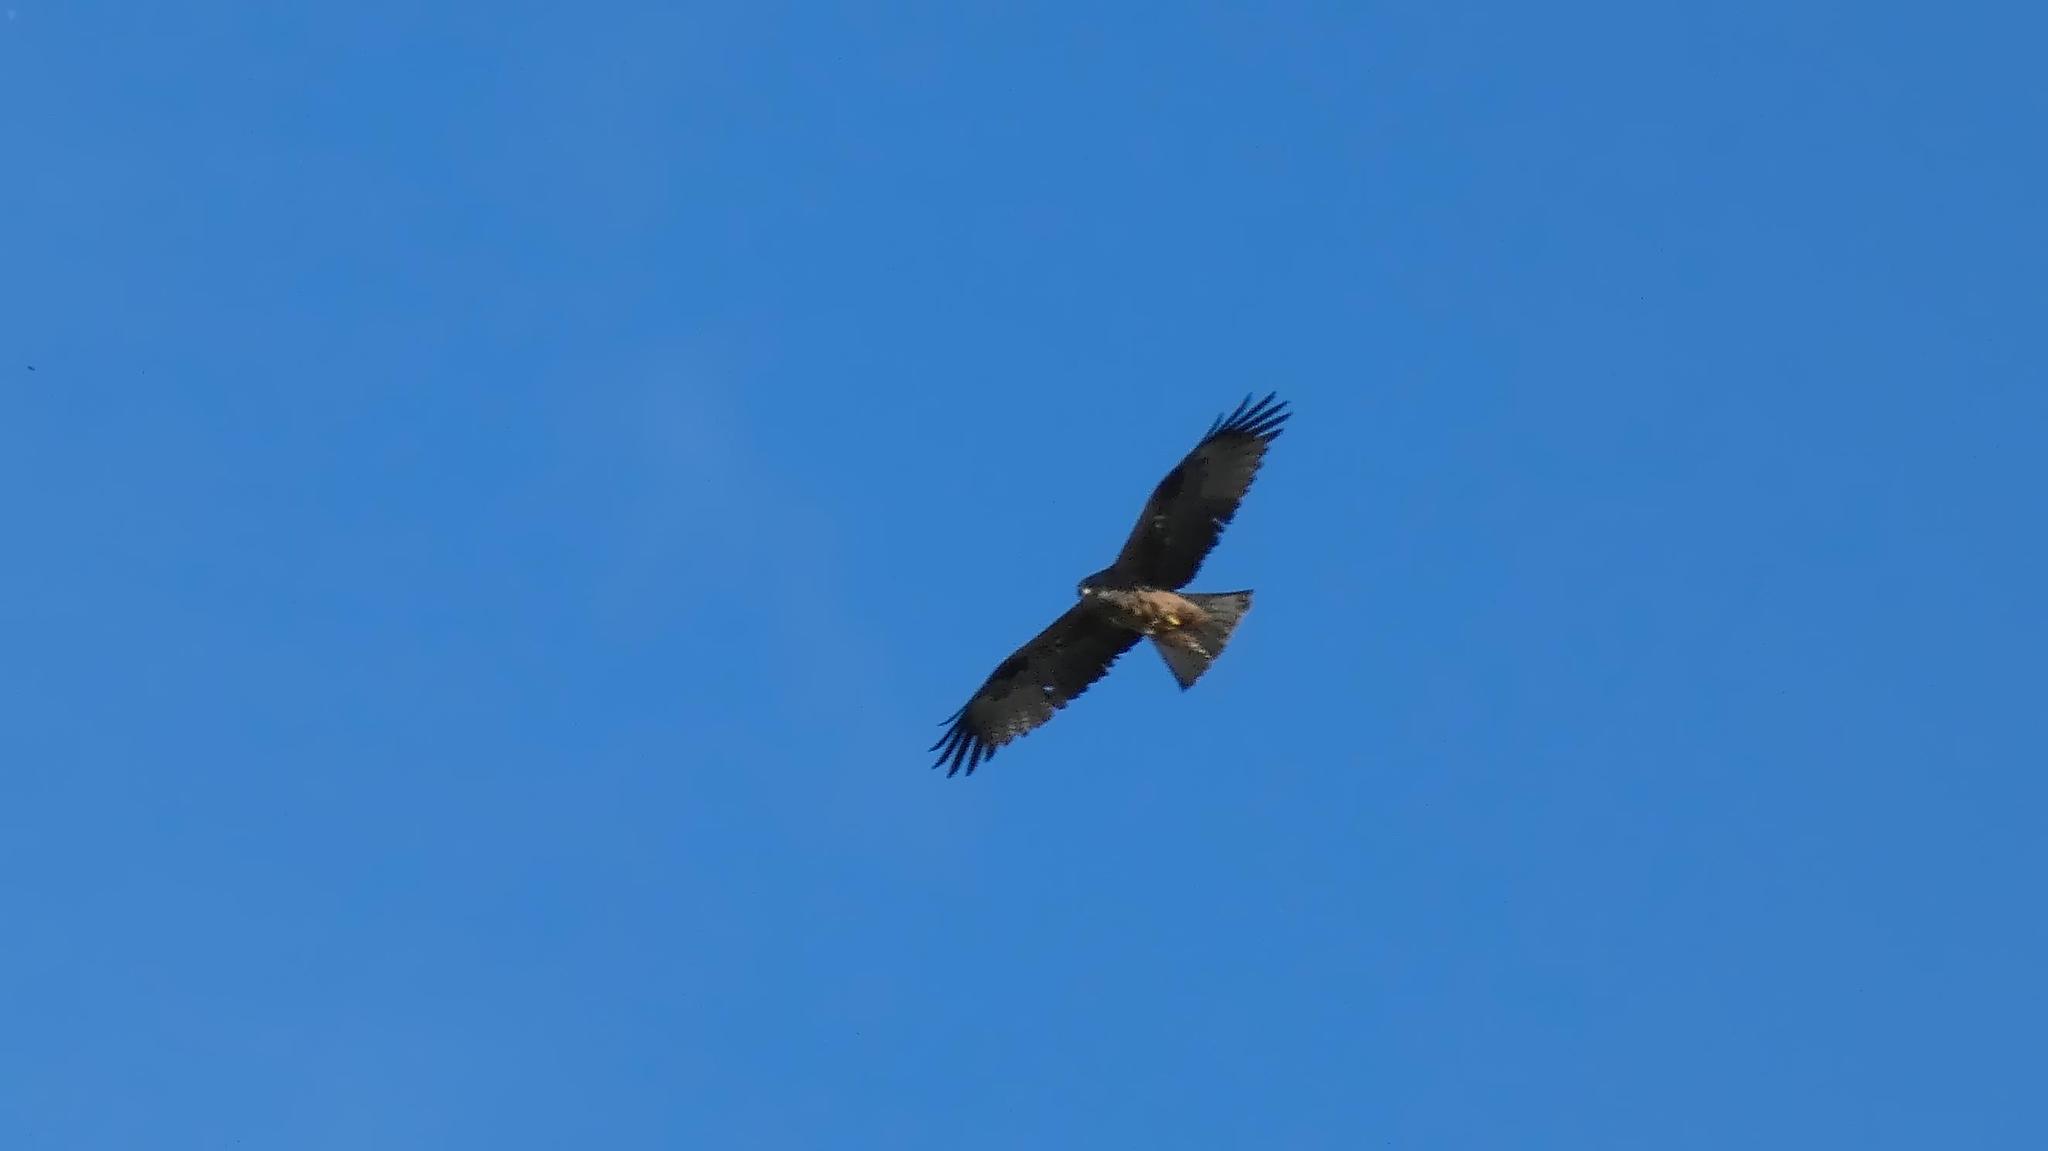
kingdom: Animalia
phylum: Chordata
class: Aves
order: Accipitriformes
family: Accipitridae
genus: Milvus
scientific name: Milvus migrans
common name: Black kite
